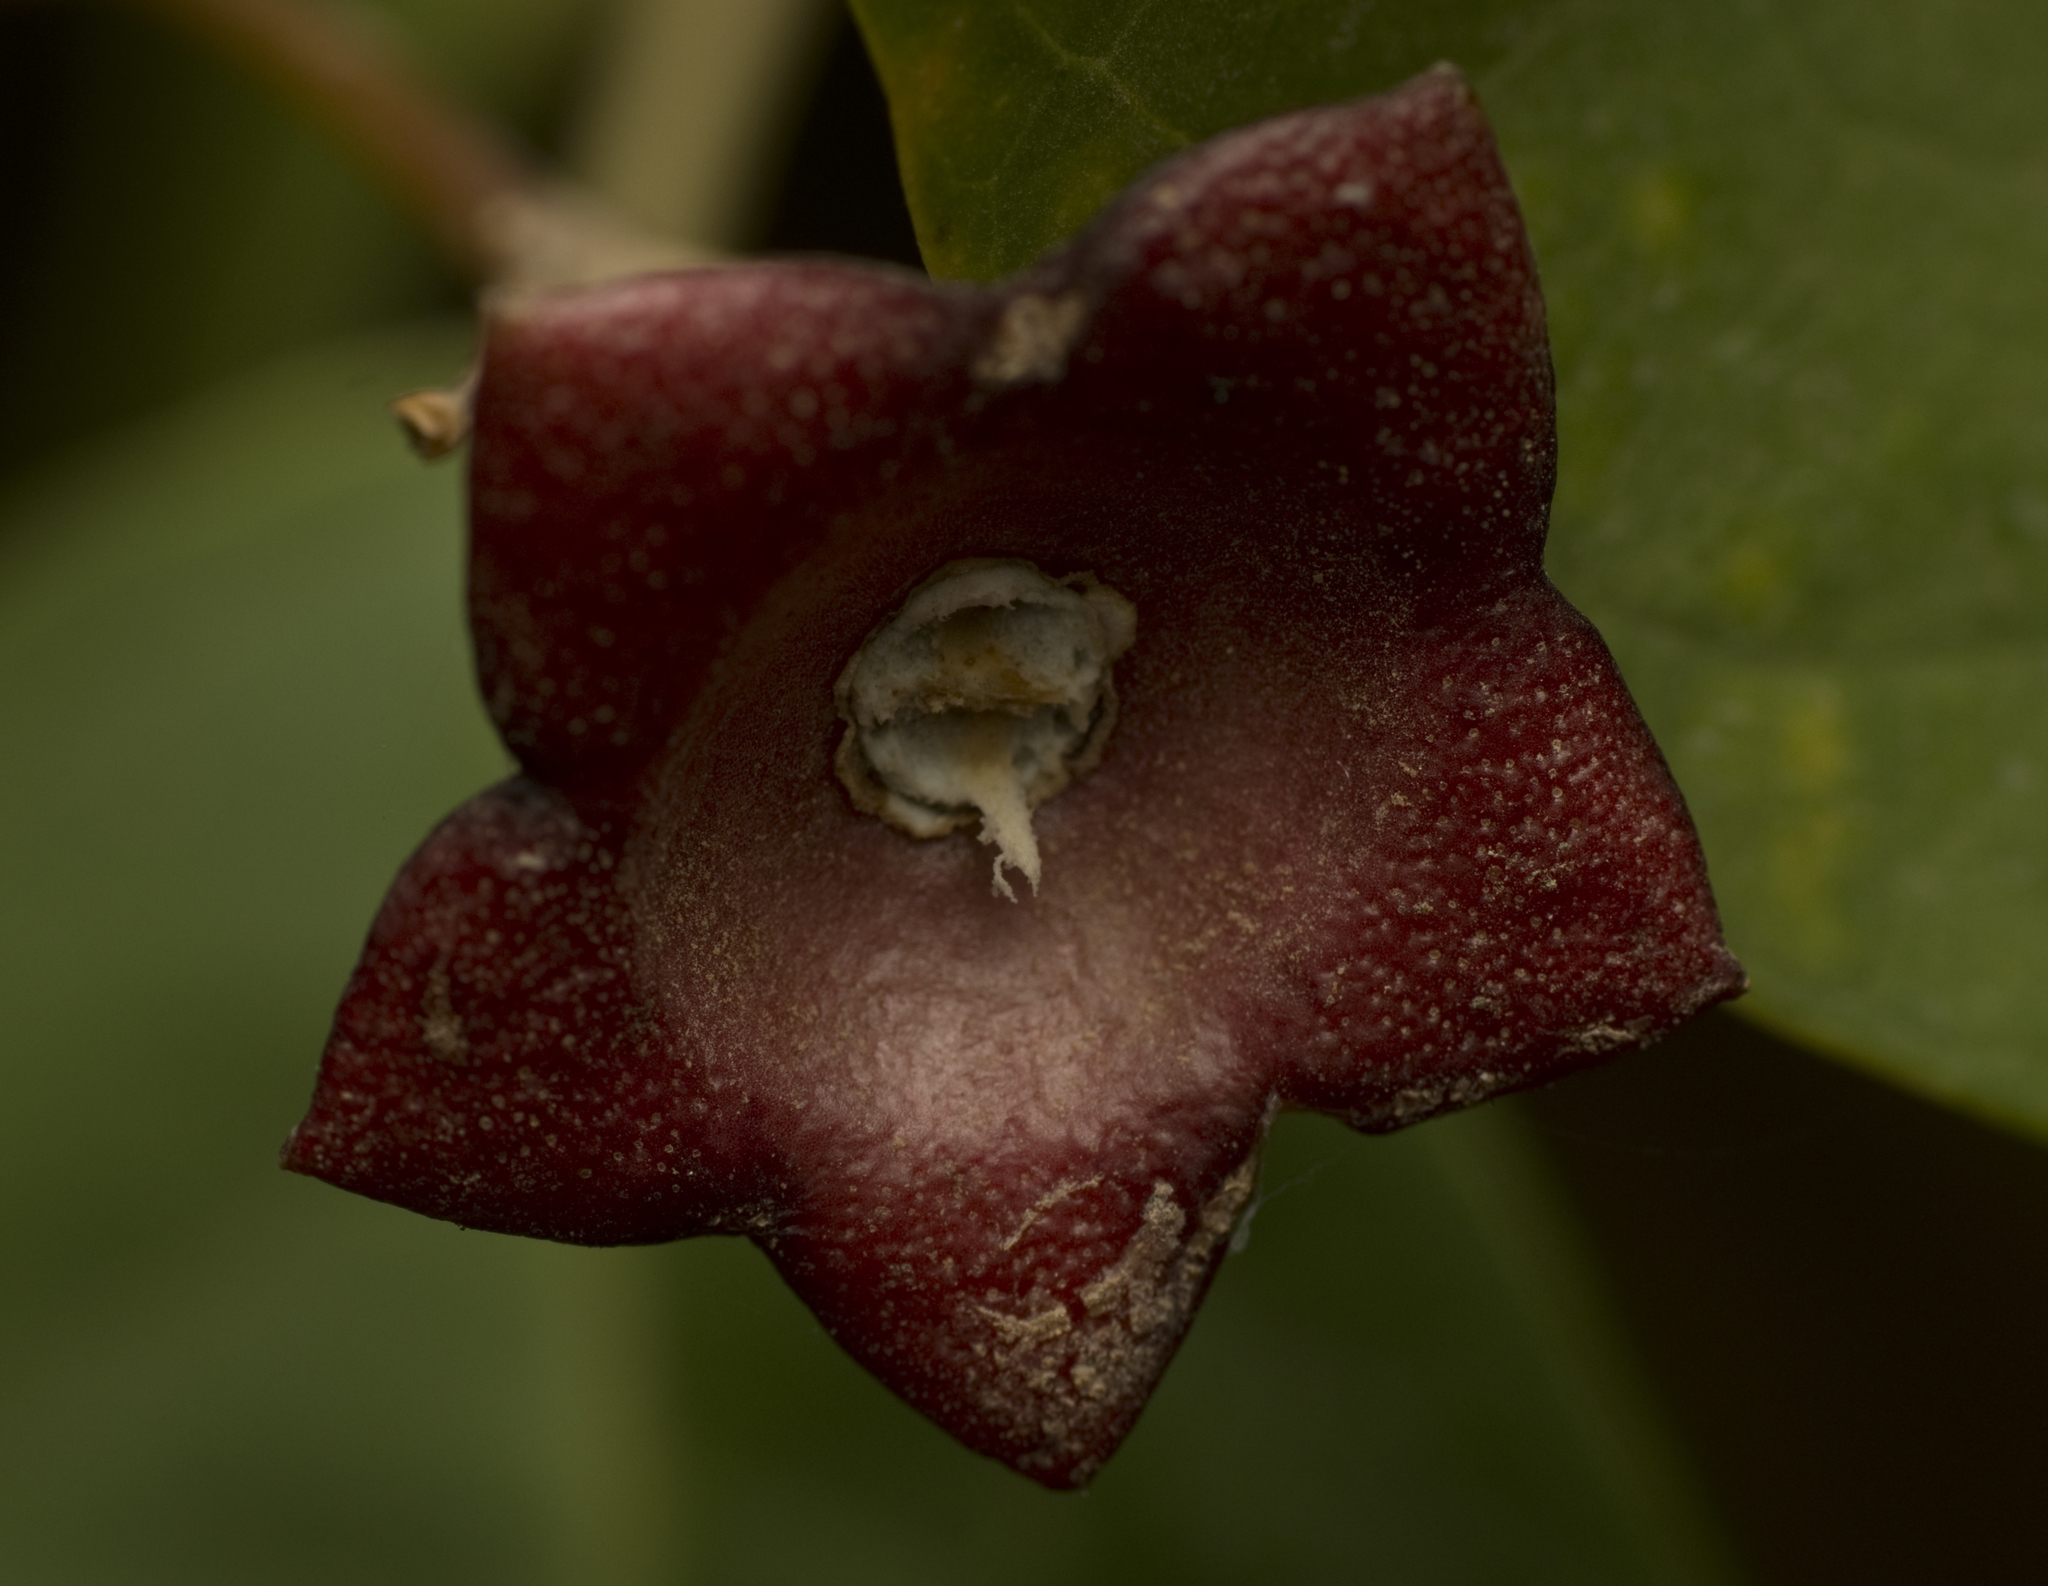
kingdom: Plantae
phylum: Tracheophyta
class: Magnoliopsida
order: Lamiales
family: Lamiaceae
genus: Clerodendrum
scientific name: Clerodendrum floribundum
